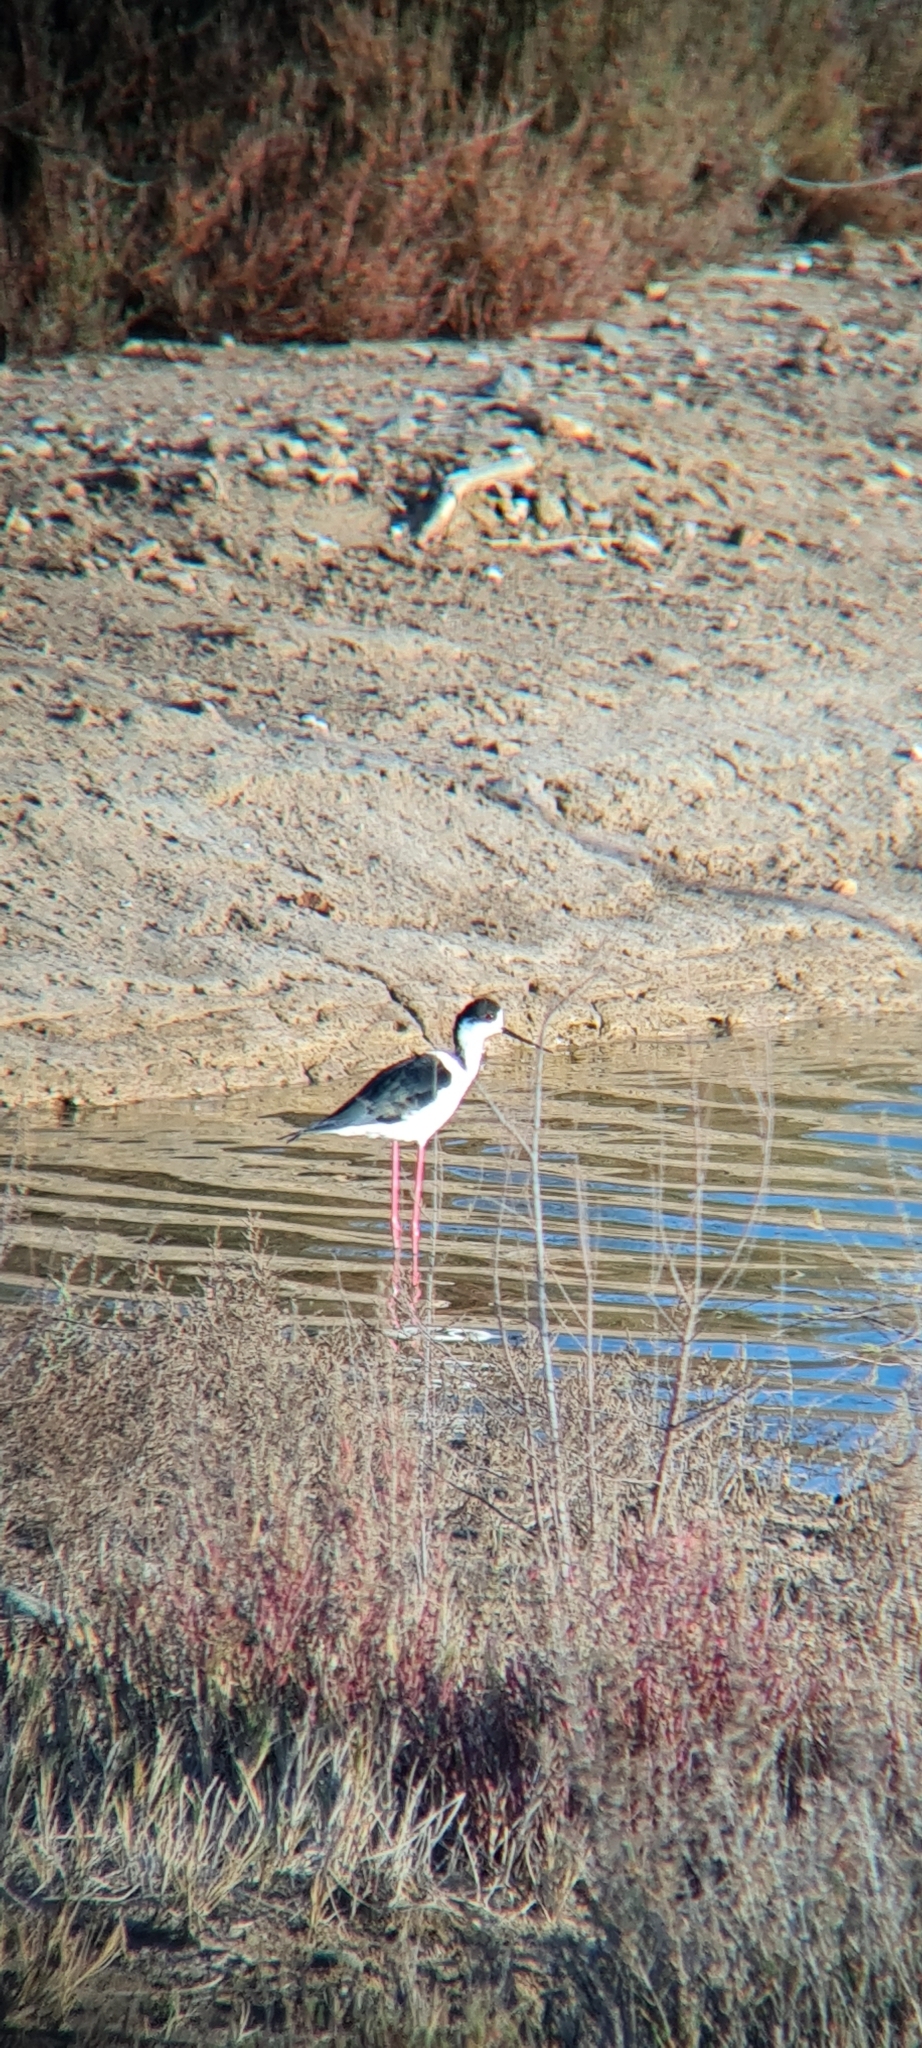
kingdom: Animalia
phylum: Chordata
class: Aves
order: Charadriiformes
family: Recurvirostridae
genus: Himantopus
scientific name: Himantopus himantopus
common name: Black-winged stilt
